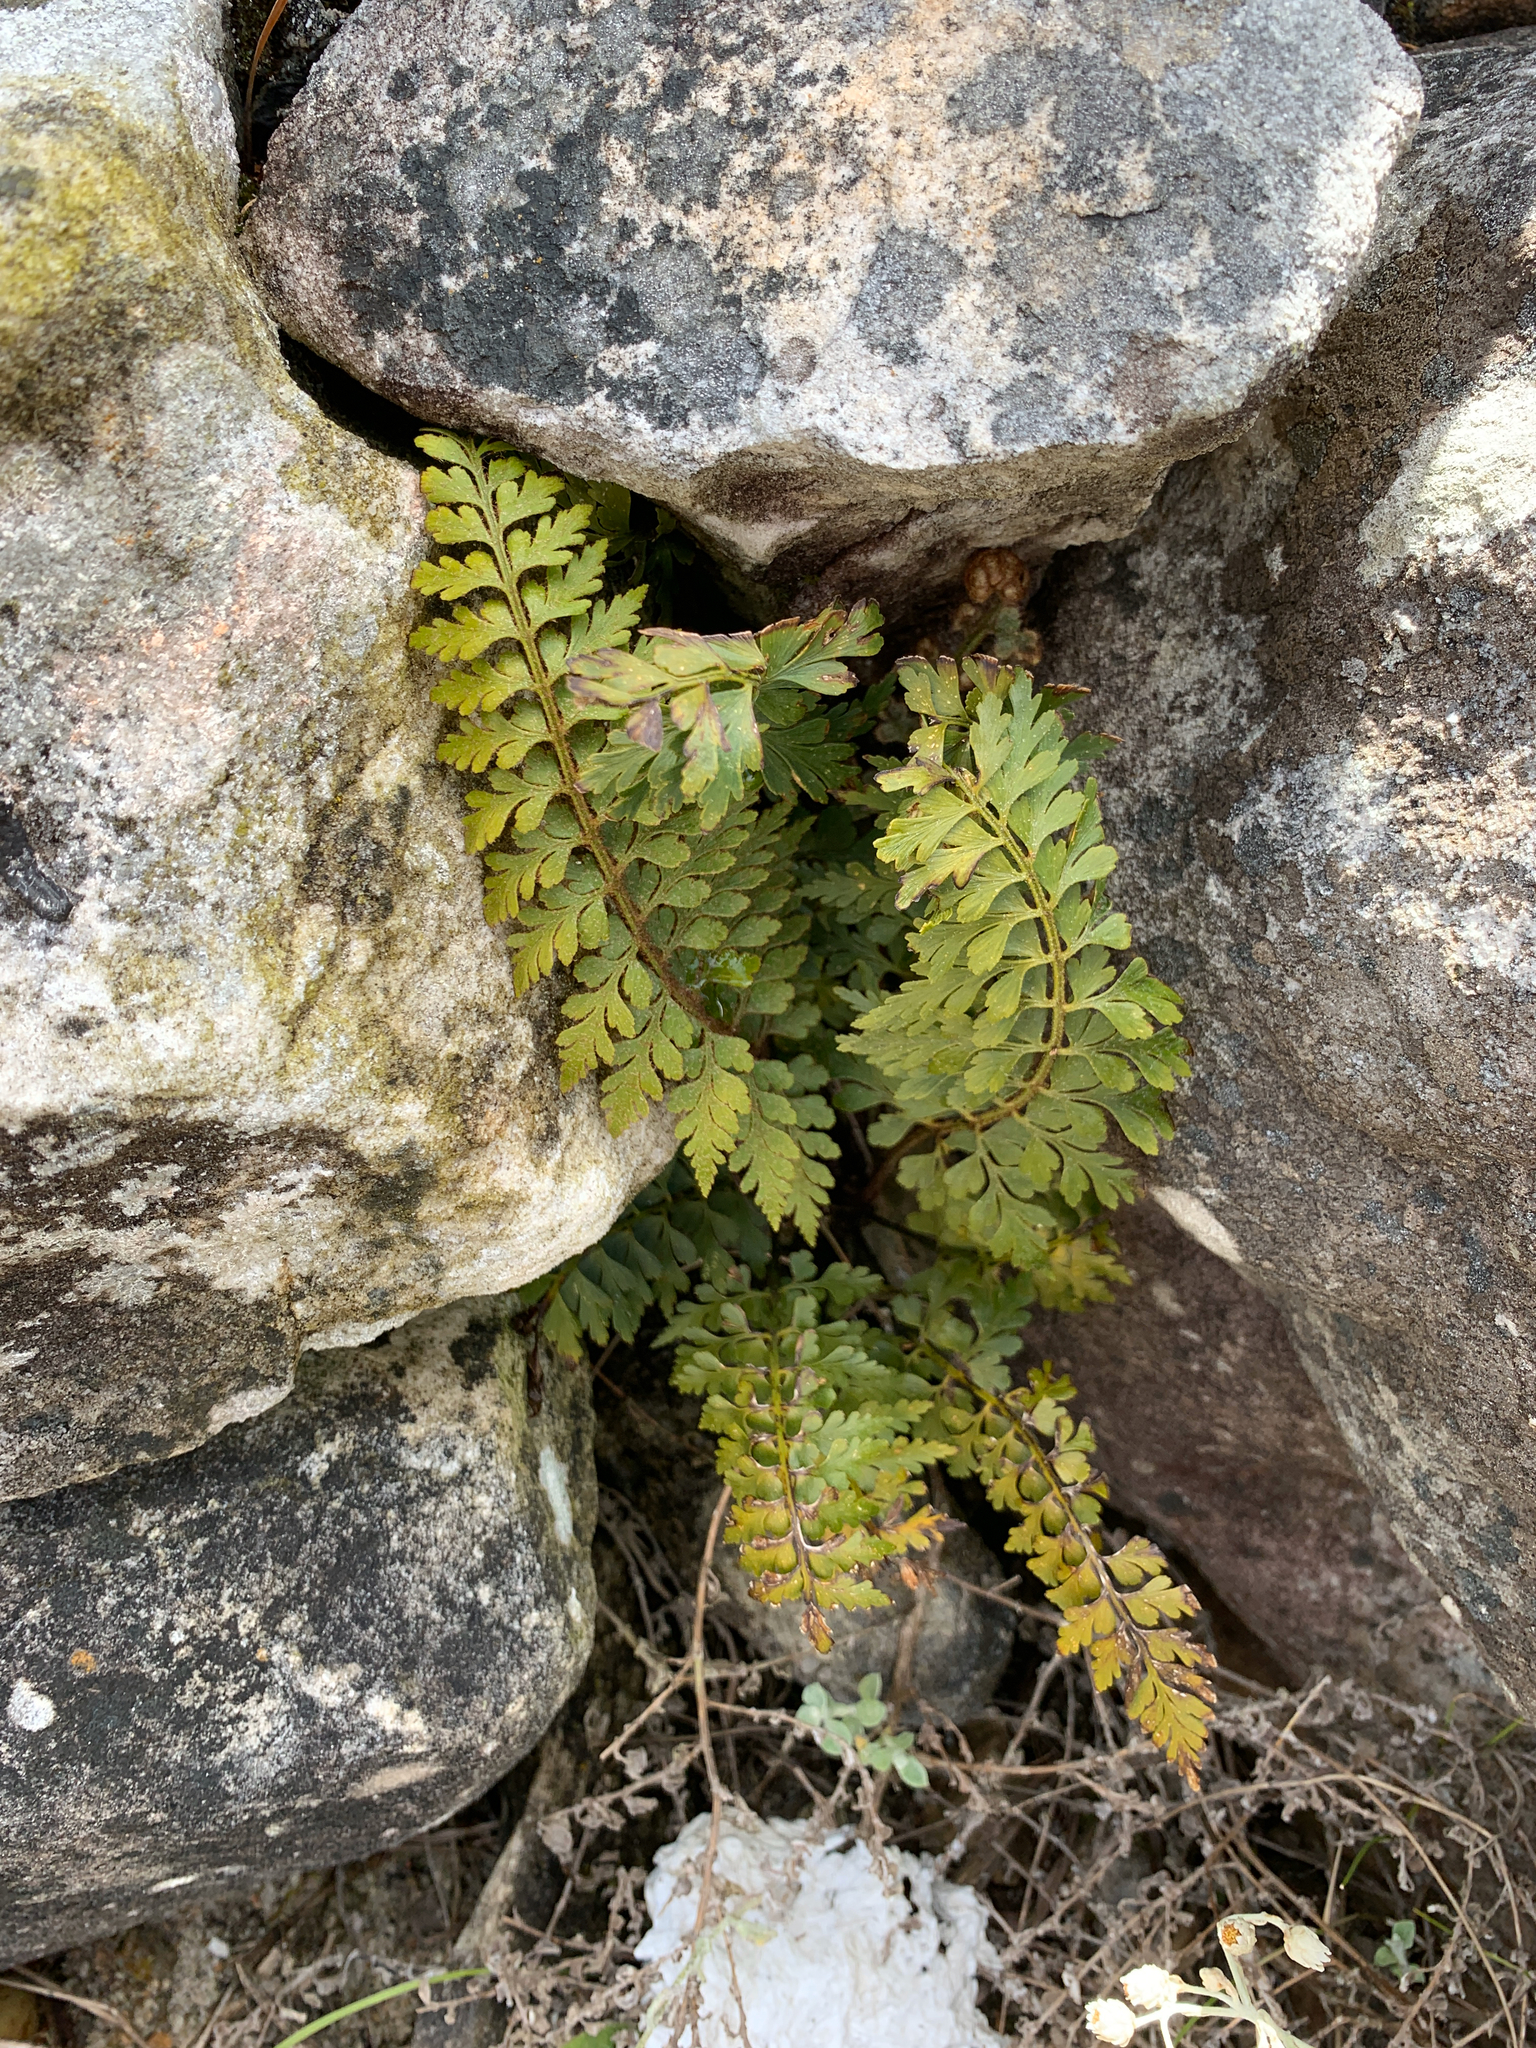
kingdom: Plantae
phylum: Tracheophyta
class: Polypodiopsida
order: Polypodiales
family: Aspleniaceae
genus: Asplenium
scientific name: Asplenium aethiopicum
